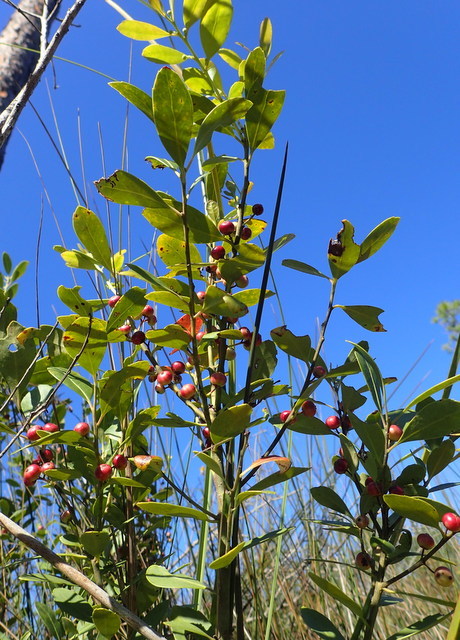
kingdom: Plantae
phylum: Tracheophyta
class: Magnoliopsida
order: Aquifoliales
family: Aquifoliaceae
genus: Ilex
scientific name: Ilex glabra
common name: Bitter gallberry
